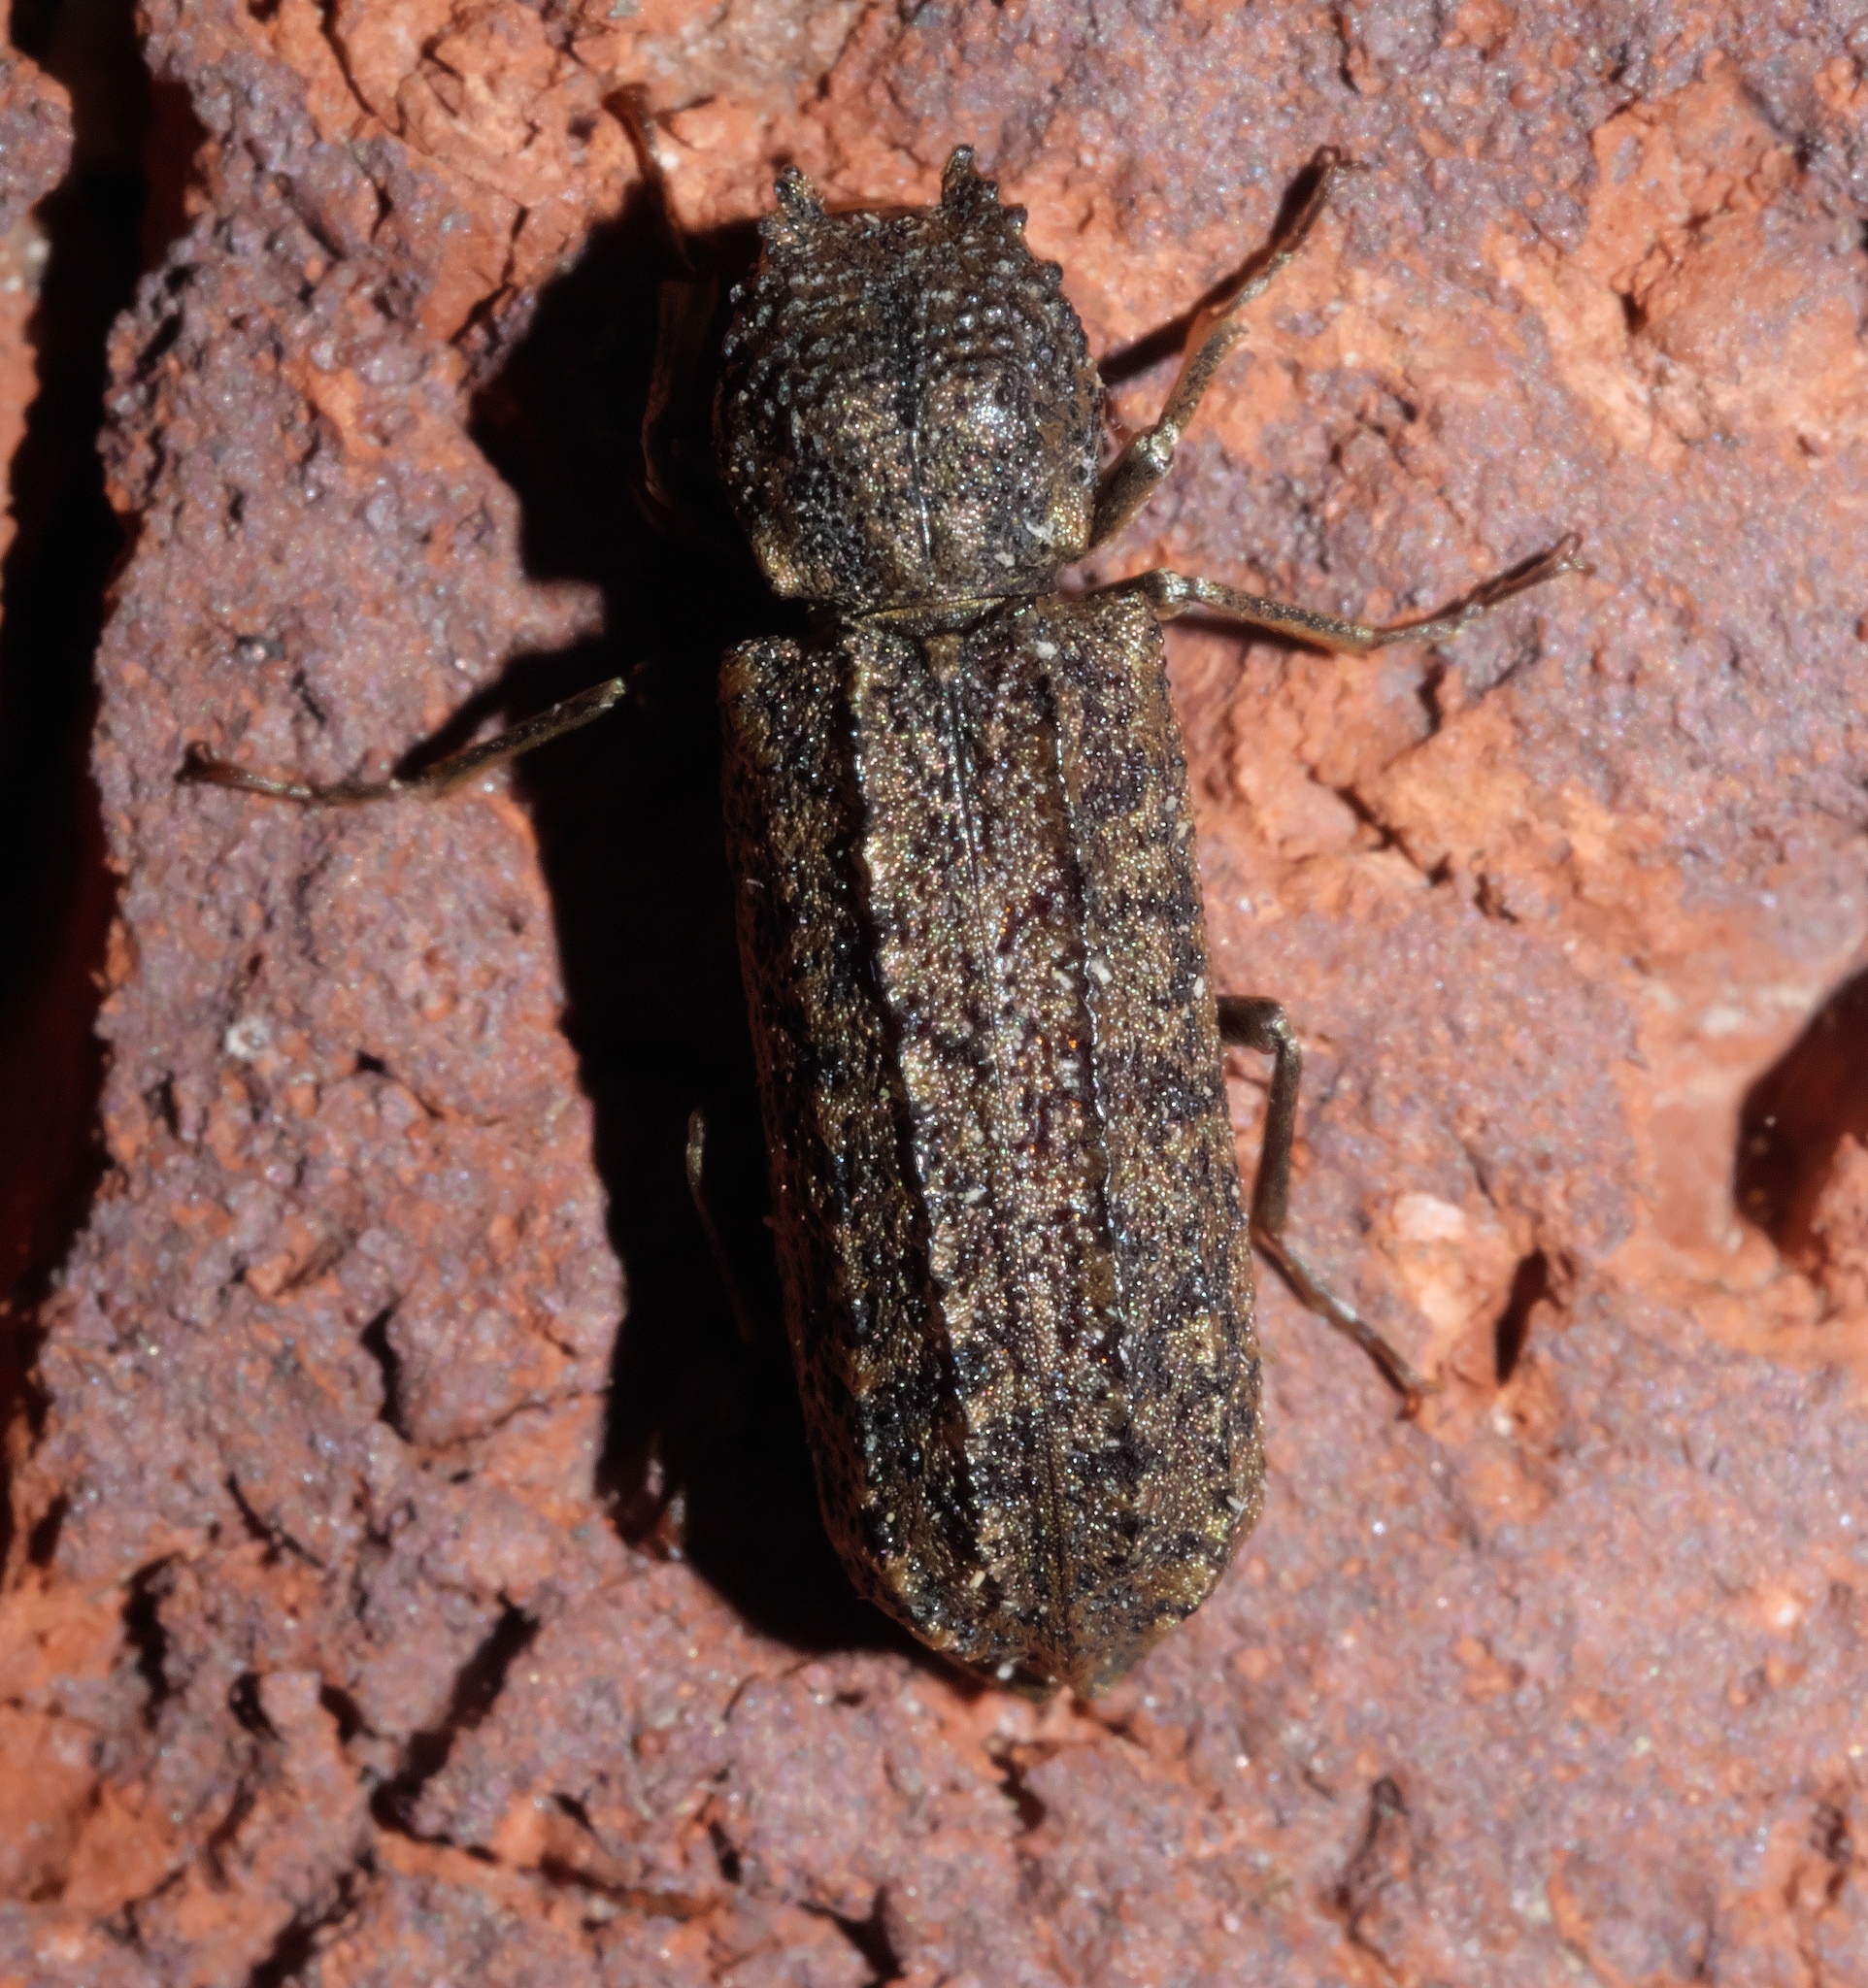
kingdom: Animalia
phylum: Arthropoda
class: Insecta
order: Coleoptera
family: Bostrichidae
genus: Lichenophanes
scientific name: Lichenophanes bicornis
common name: Two-horned powder-post beetle
